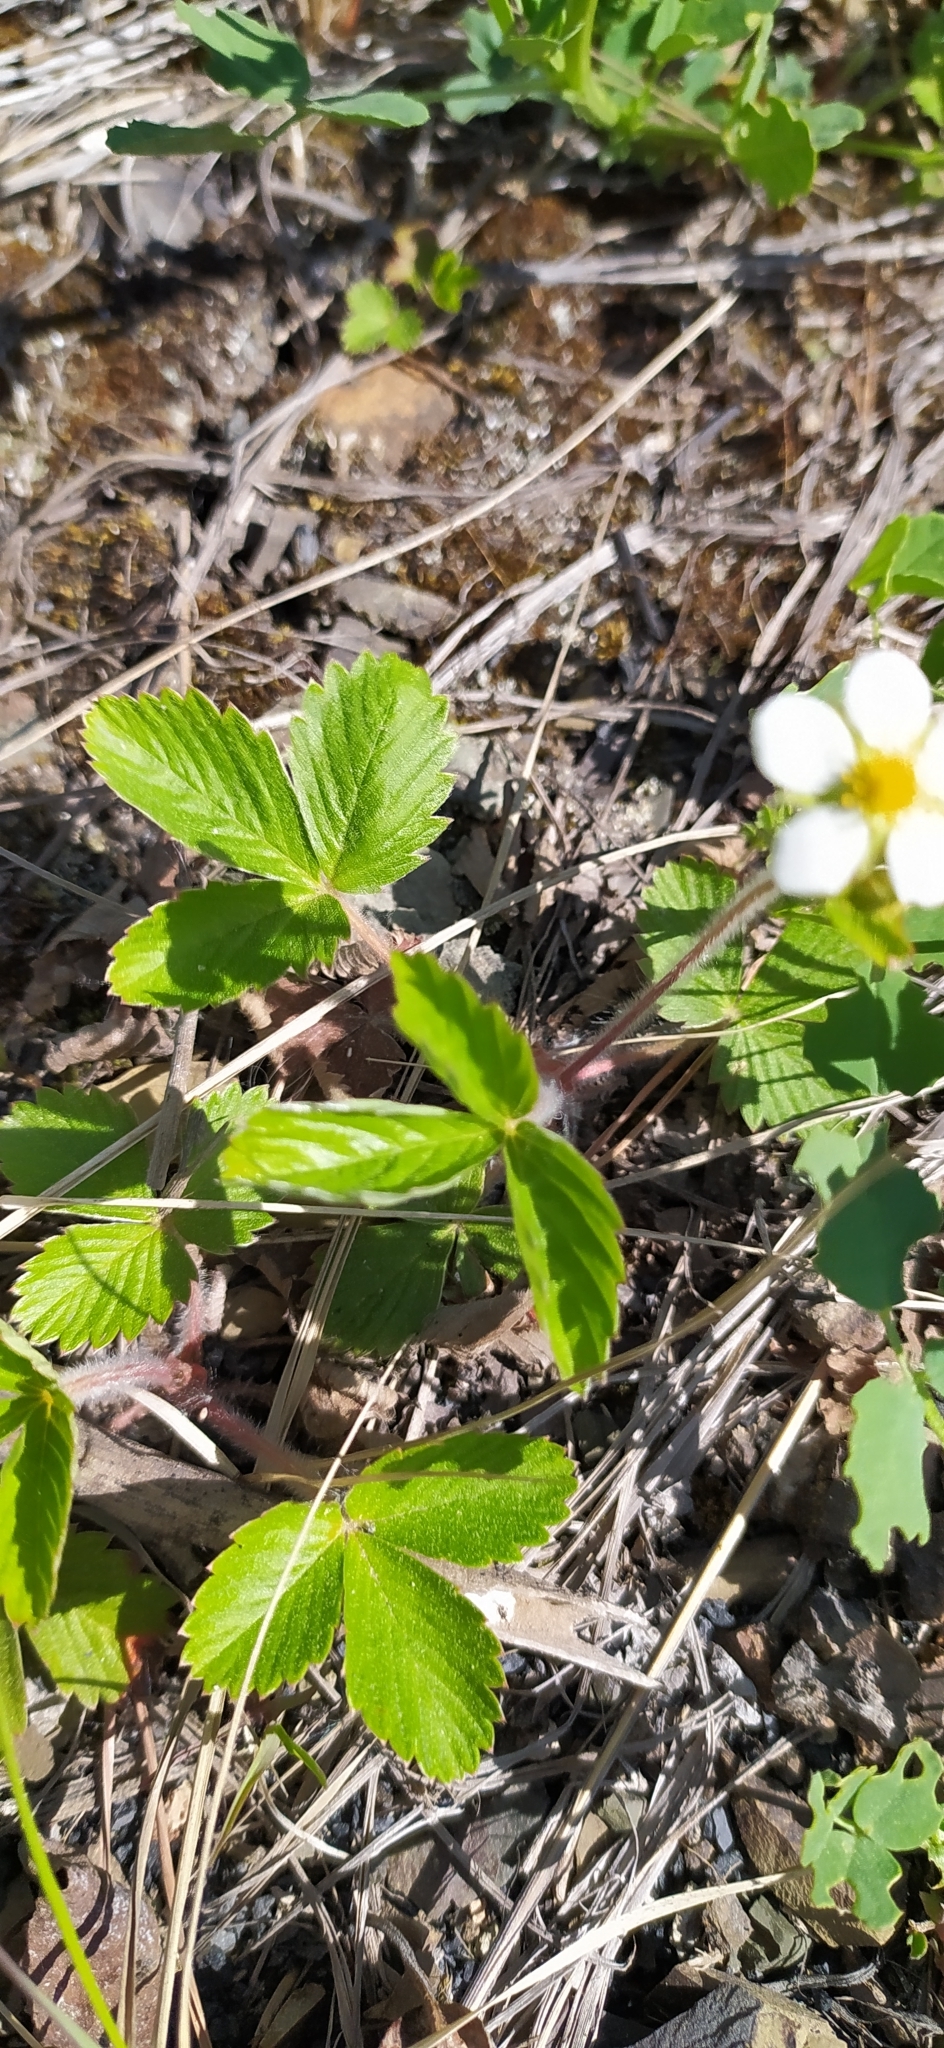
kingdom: Plantae
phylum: Tracheophyta
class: Magnoliopsida
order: Rosales
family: Rosaceae
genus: Fragaria
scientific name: Fragaria vesca
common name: Wild strawberry
